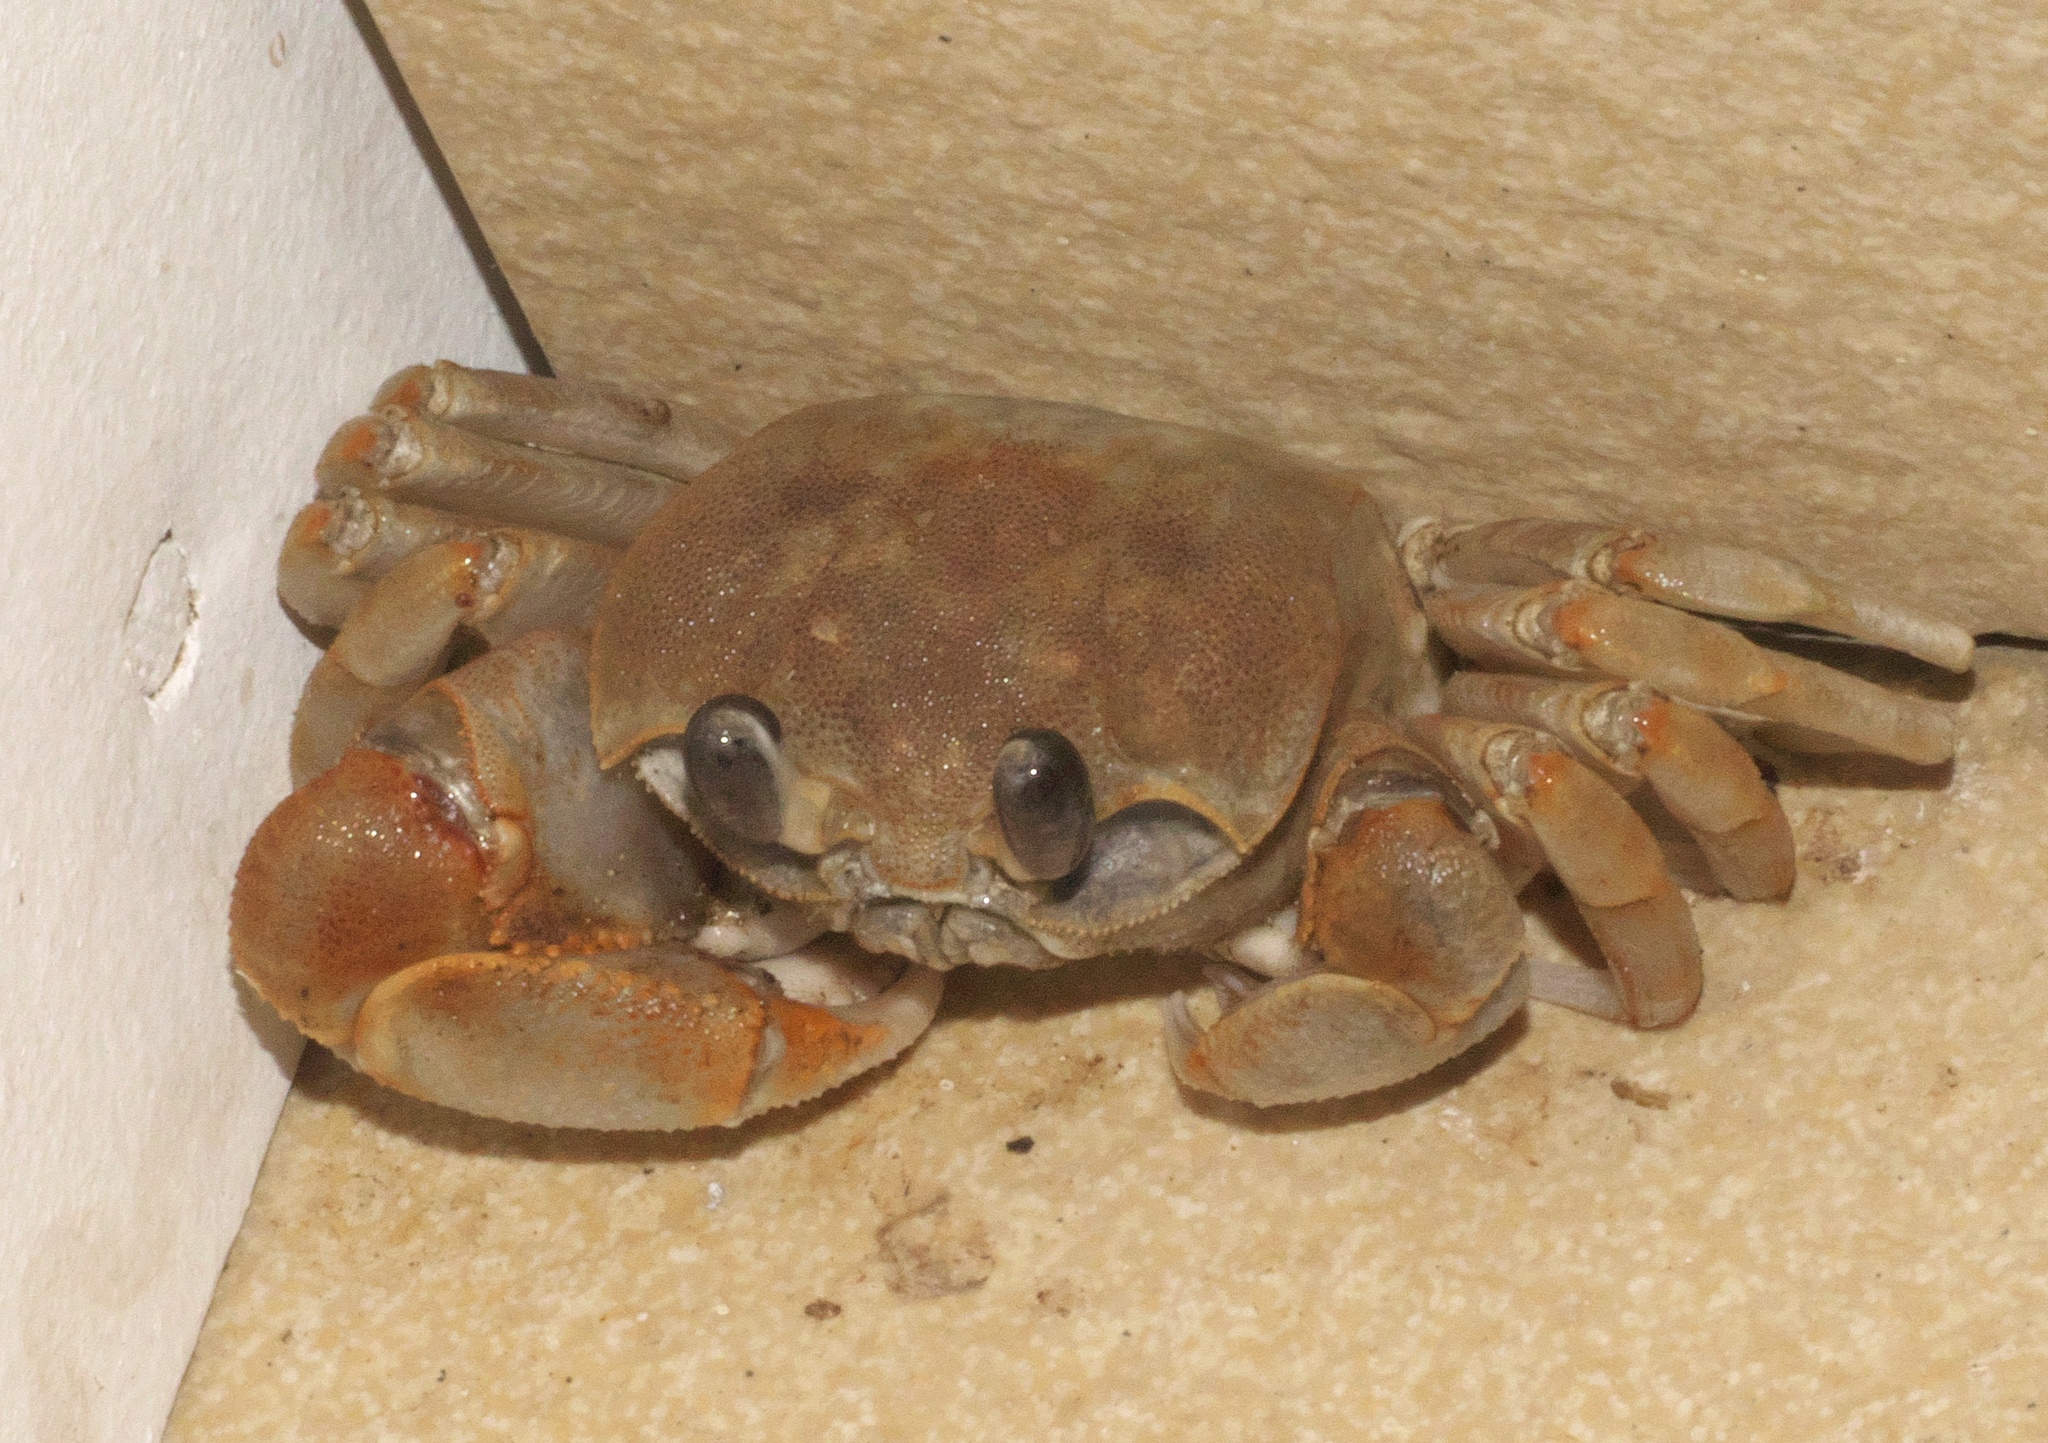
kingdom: Animalia
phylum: Arthropoda
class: Malacostraca
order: Decapoda
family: Ocypodidae
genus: Ocypode
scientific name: Ocypode cordimana
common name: Smooth-eyed ghost crab
